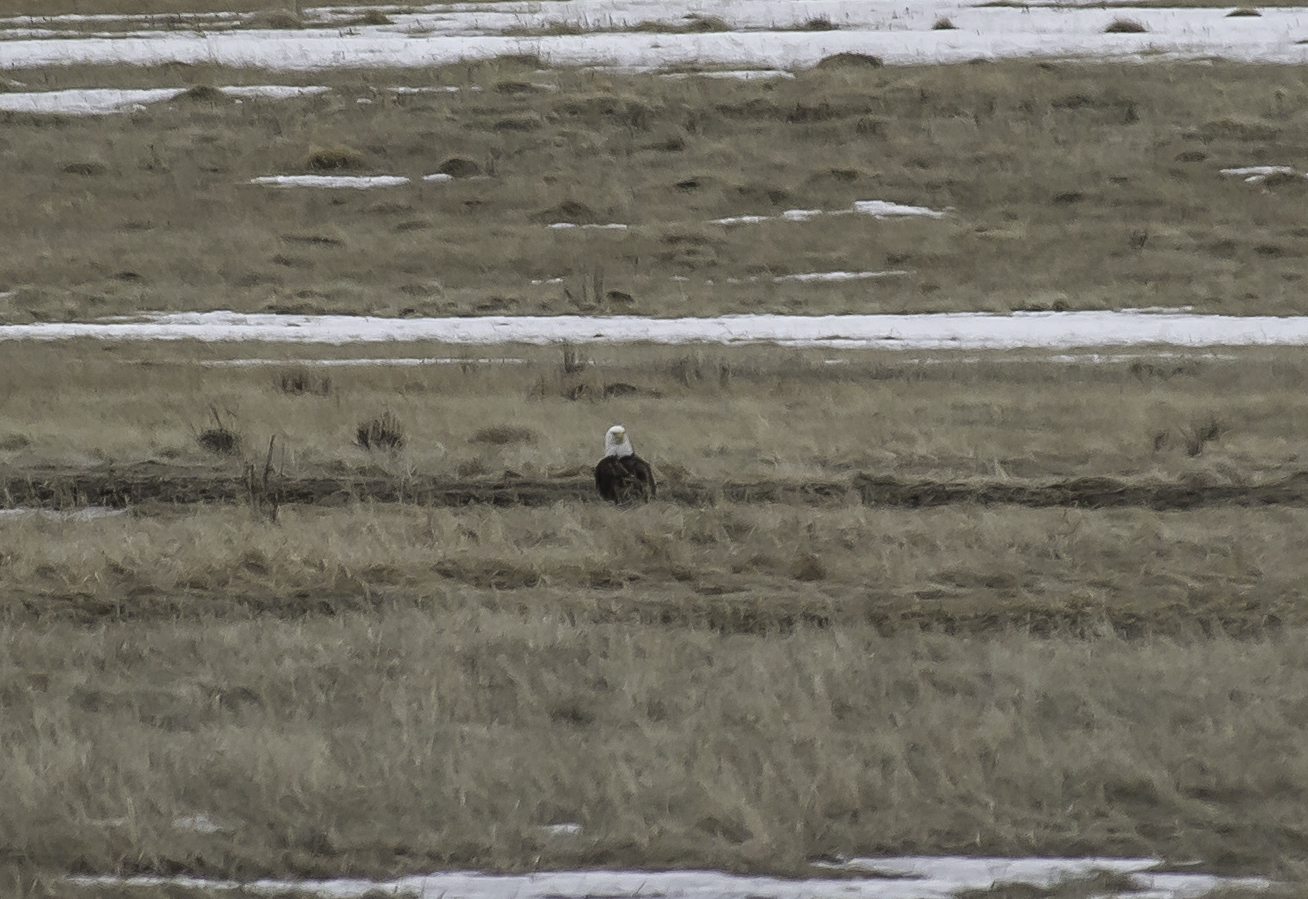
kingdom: Animalia
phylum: Chordata
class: Aves
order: Accipitriformes
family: Accipitridae
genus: Haliaeetus
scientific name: Haliaeetus leucocephalus
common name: Bald eagle
